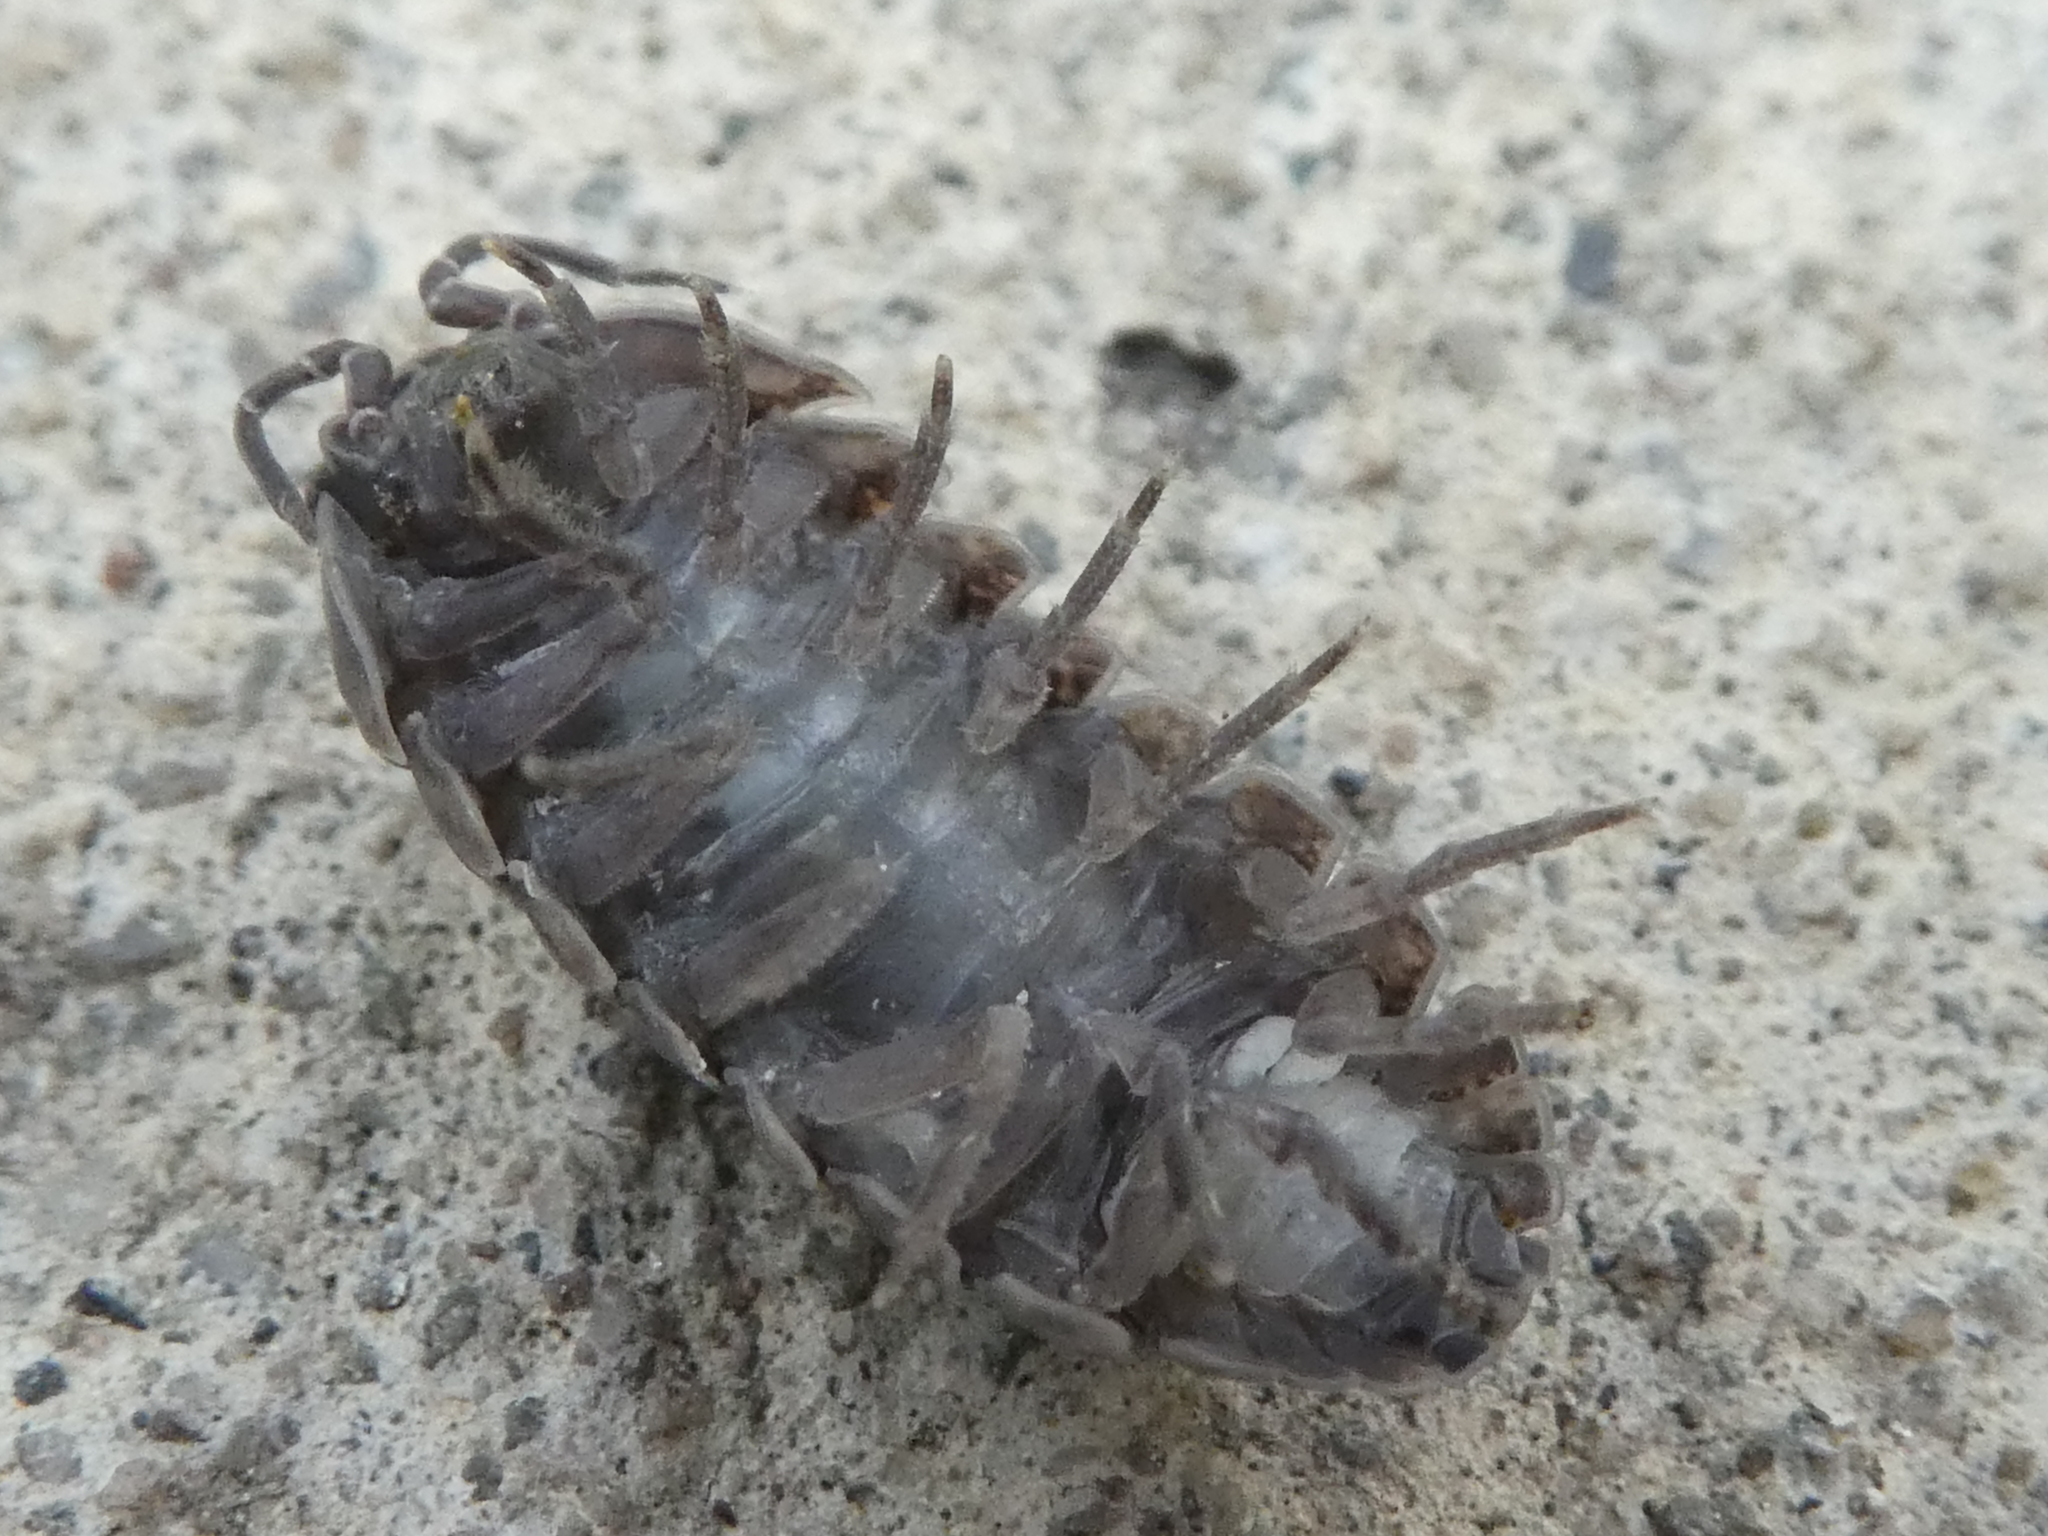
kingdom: Animalia
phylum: Arthropoda
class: Malacostraca
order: Isopoda
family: Armadillidiidae
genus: Armadillidium
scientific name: Armadillidium vulgare
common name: Common pill woodlouse
